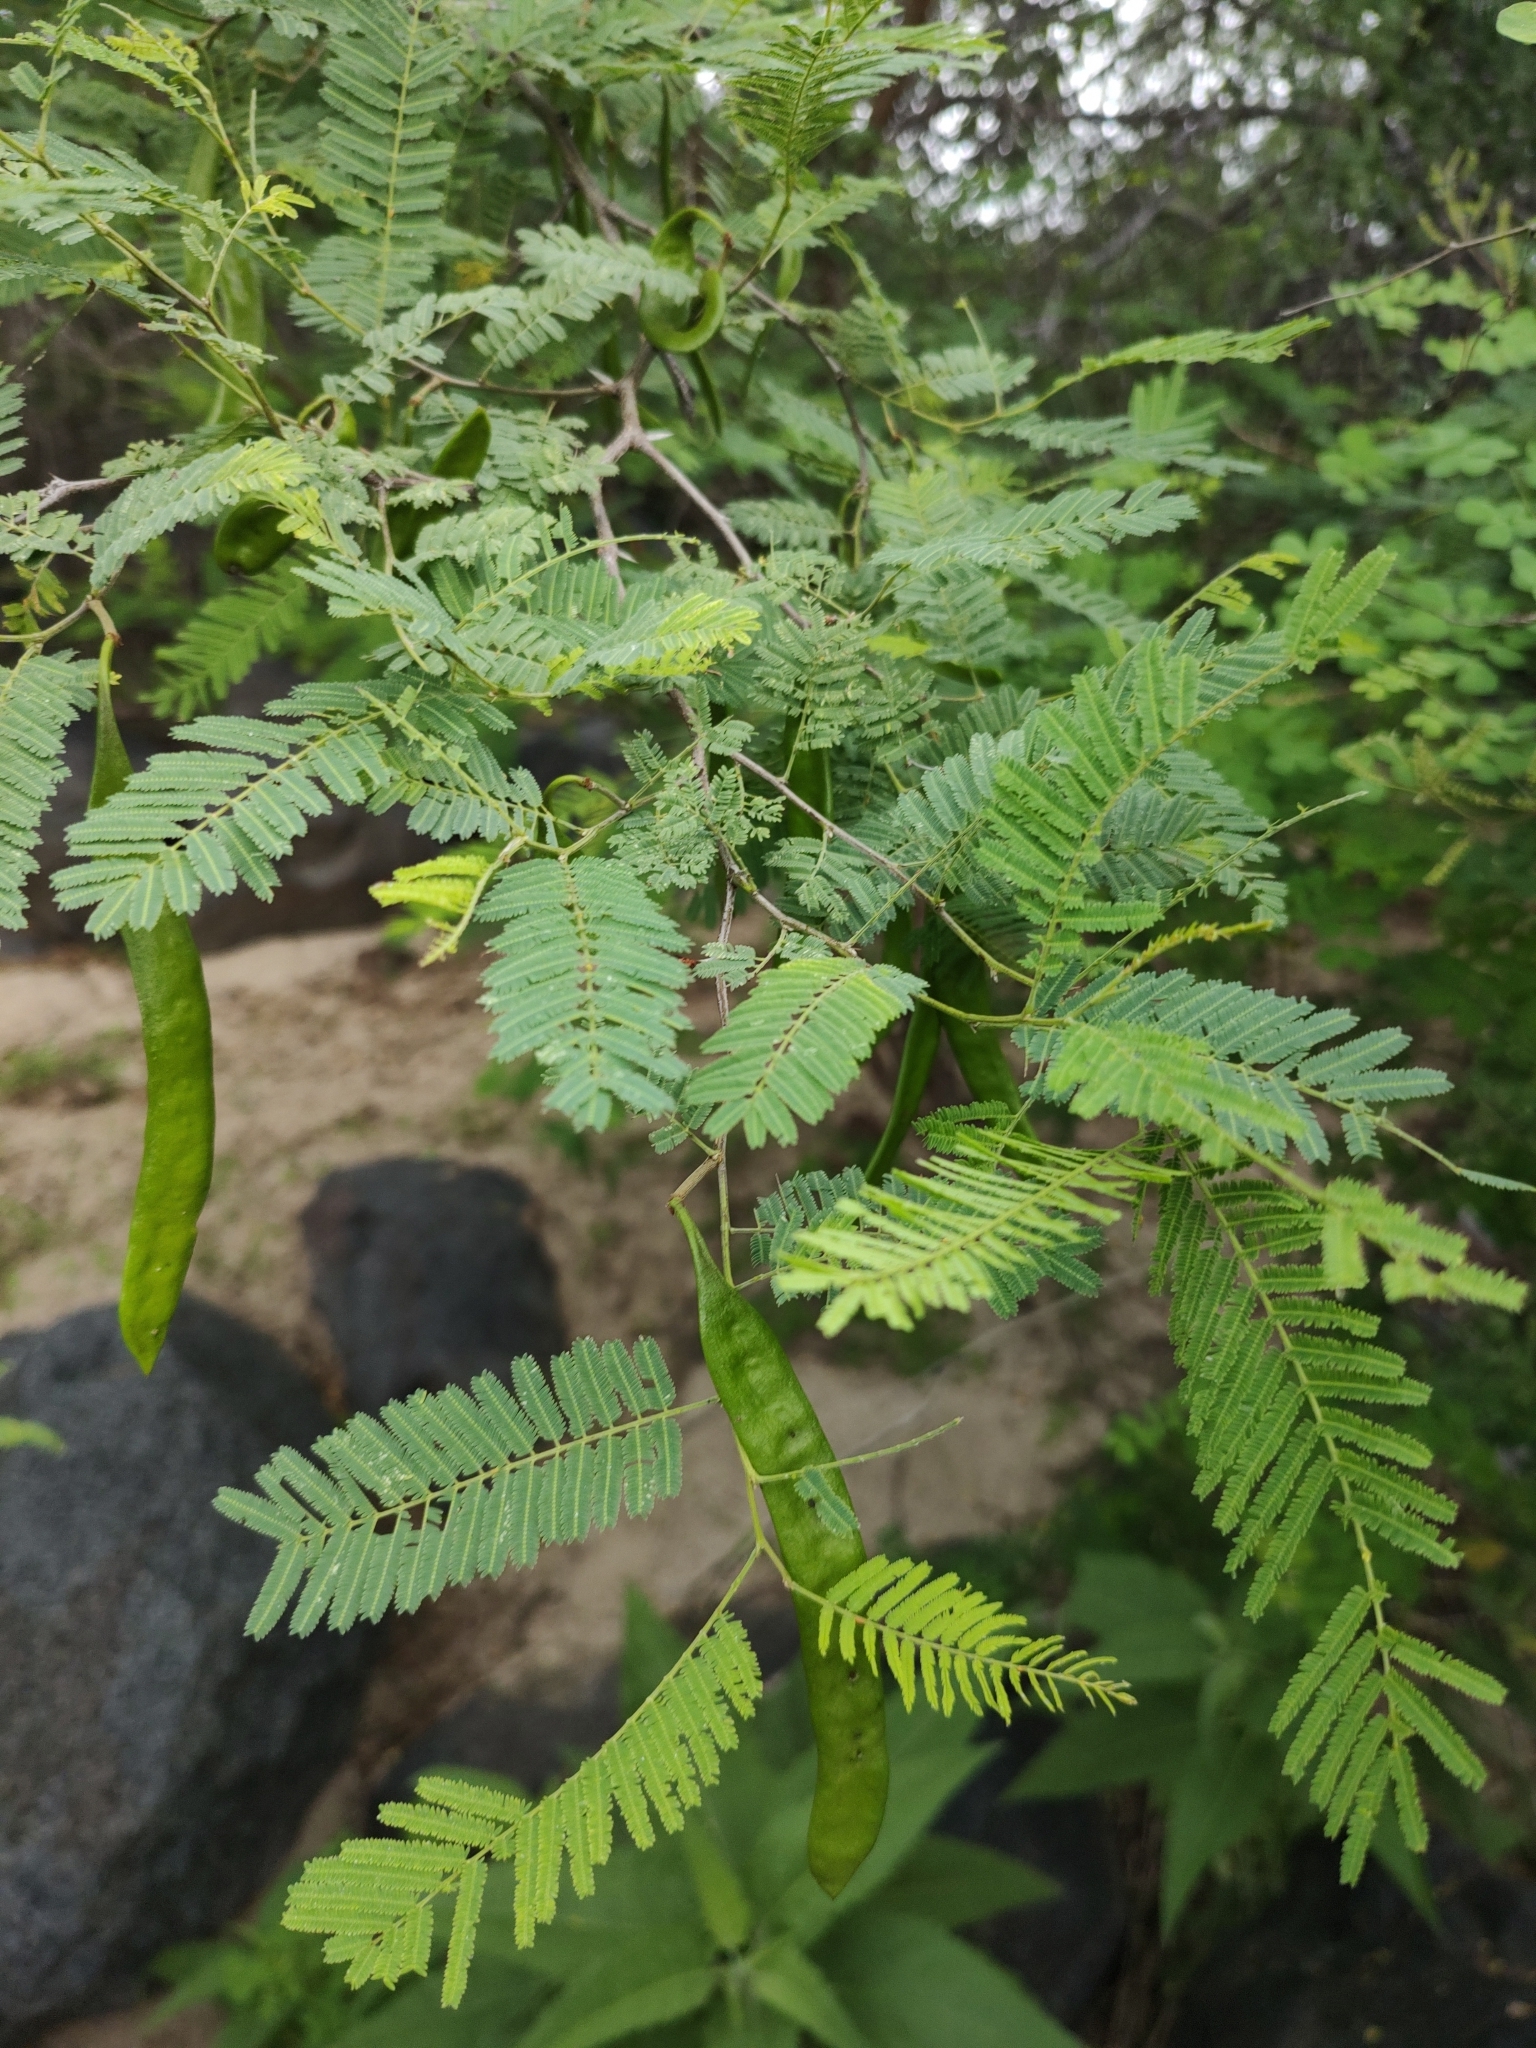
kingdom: Plantae
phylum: Tracheophyta
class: Magnoliopsida
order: Fabales
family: Fabaceae
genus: Vachellia
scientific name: Vachellia campechiana
